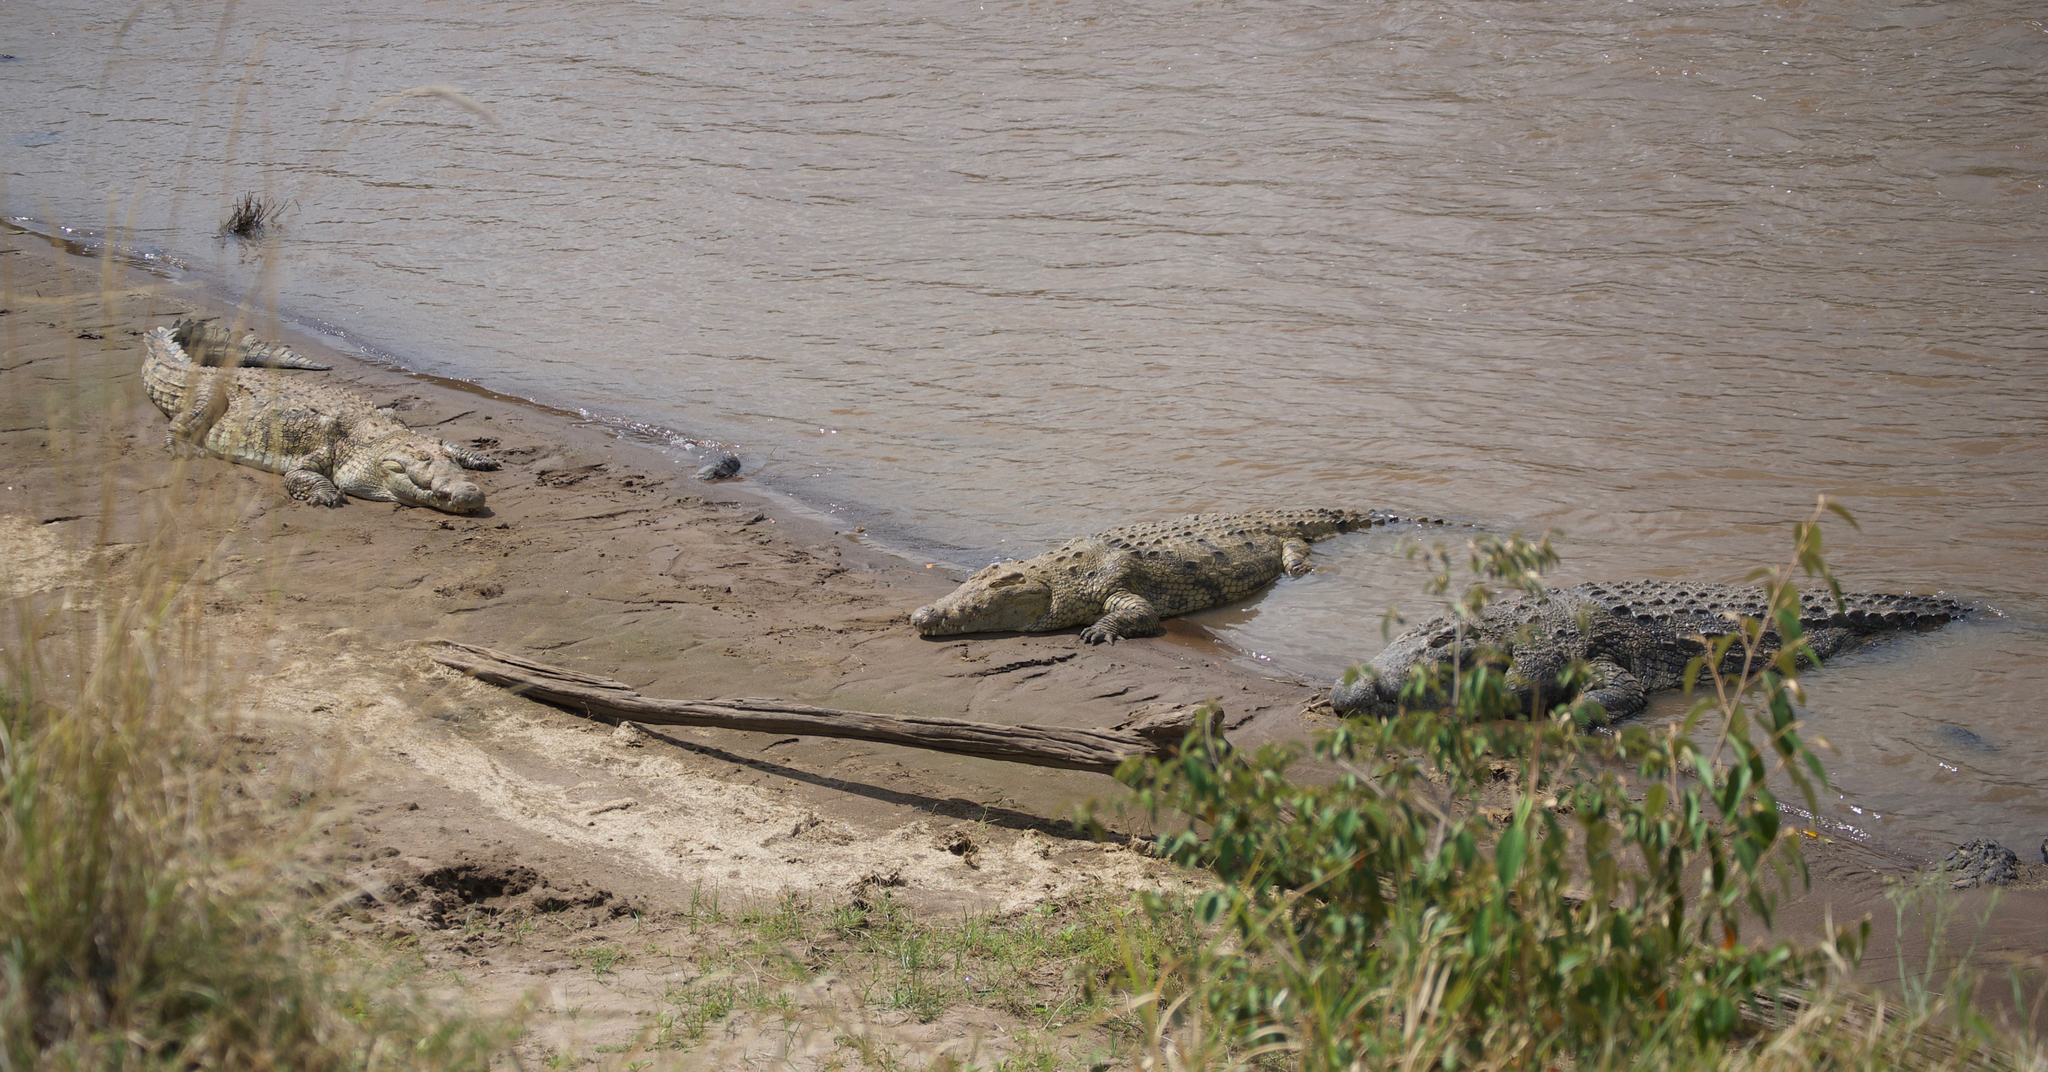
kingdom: Animalia
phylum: Chordata
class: Crocodylia
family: Crocodylidae
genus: Crocodylus
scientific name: Crocodylus niloticus
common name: Nile crocodile
